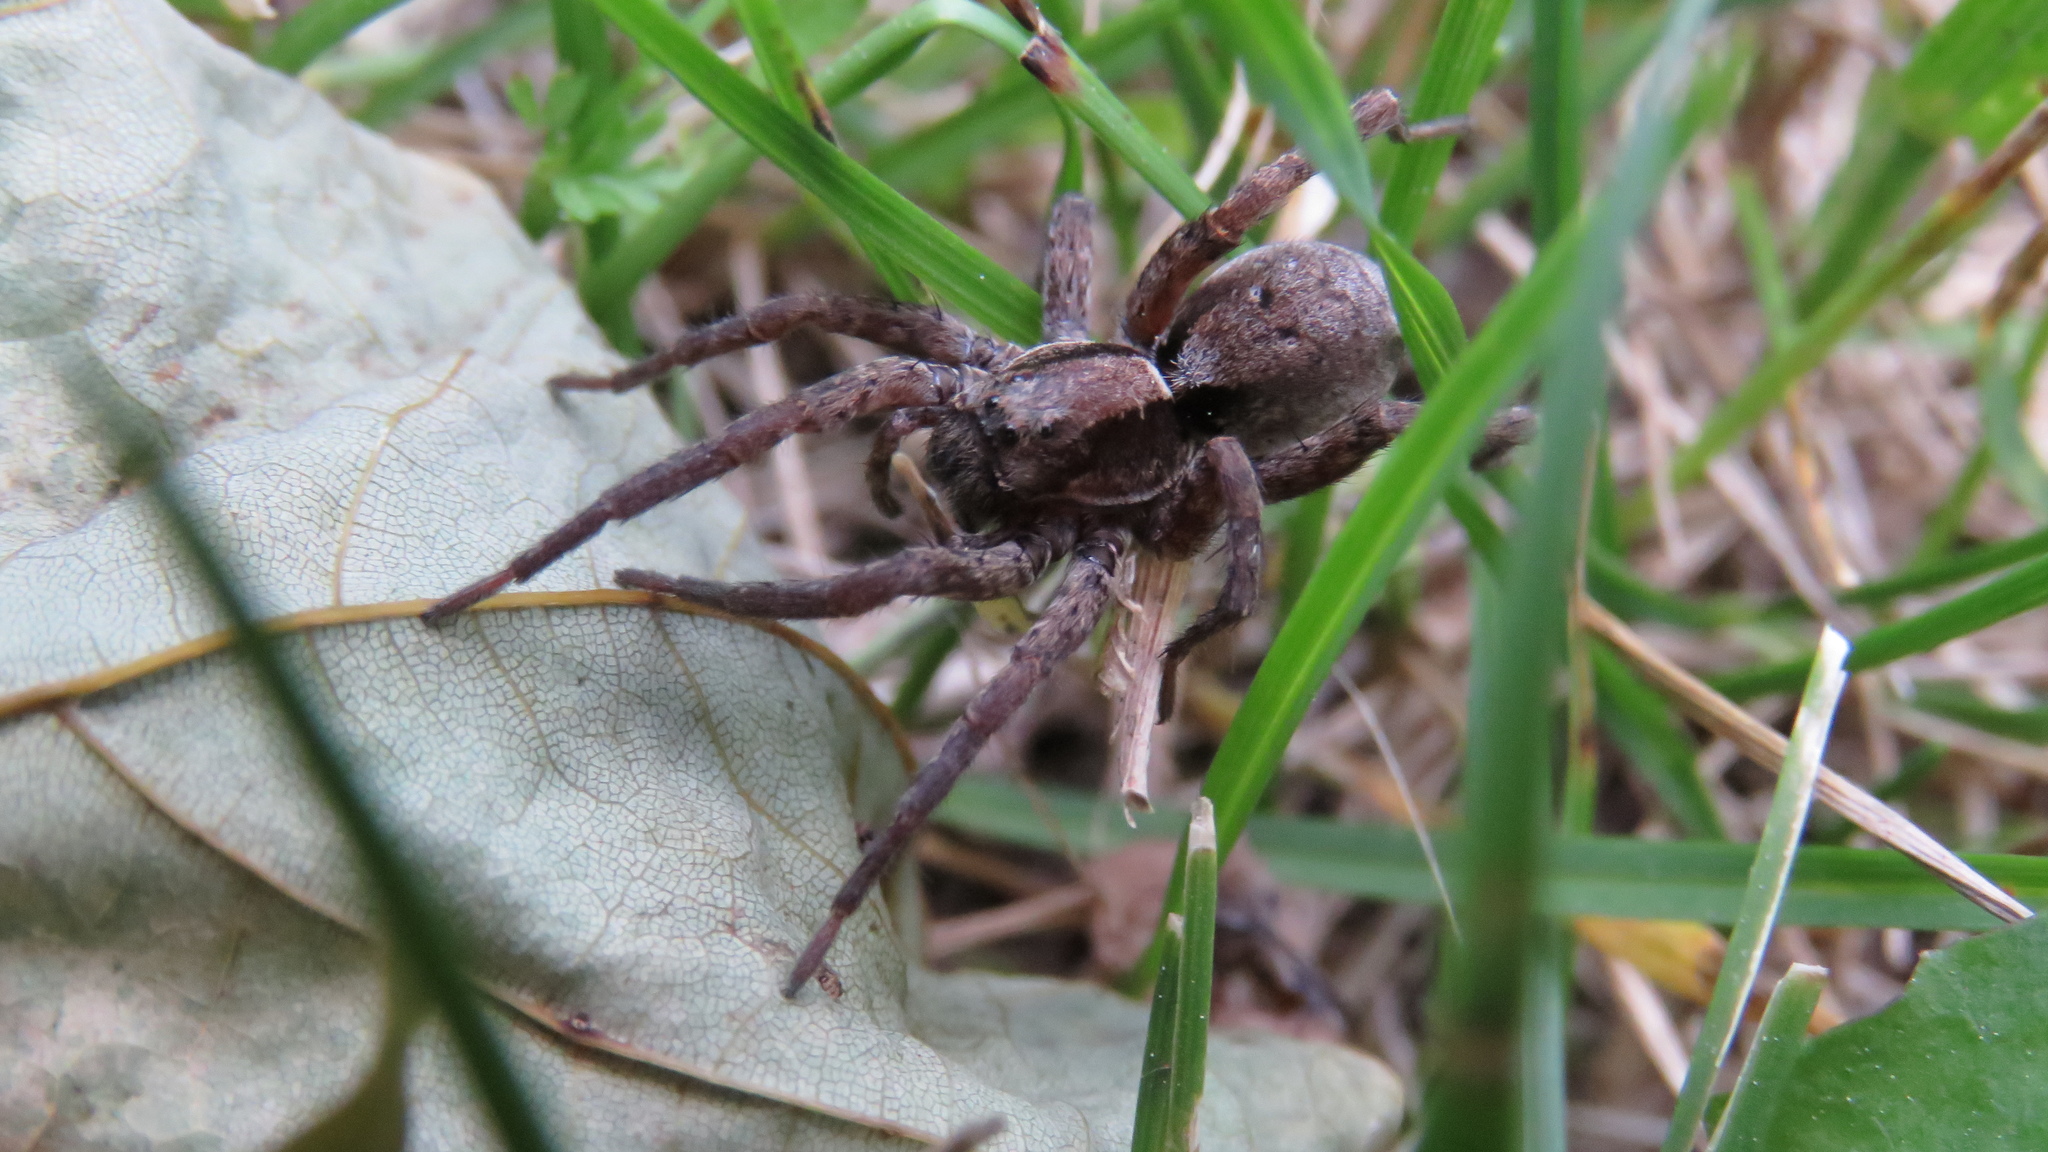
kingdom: Animalia
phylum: Arthropoda
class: Arachnida
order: Araneae
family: Lycosidae
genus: Hogna
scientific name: Hogna frondicola
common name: Forest wolf spider
